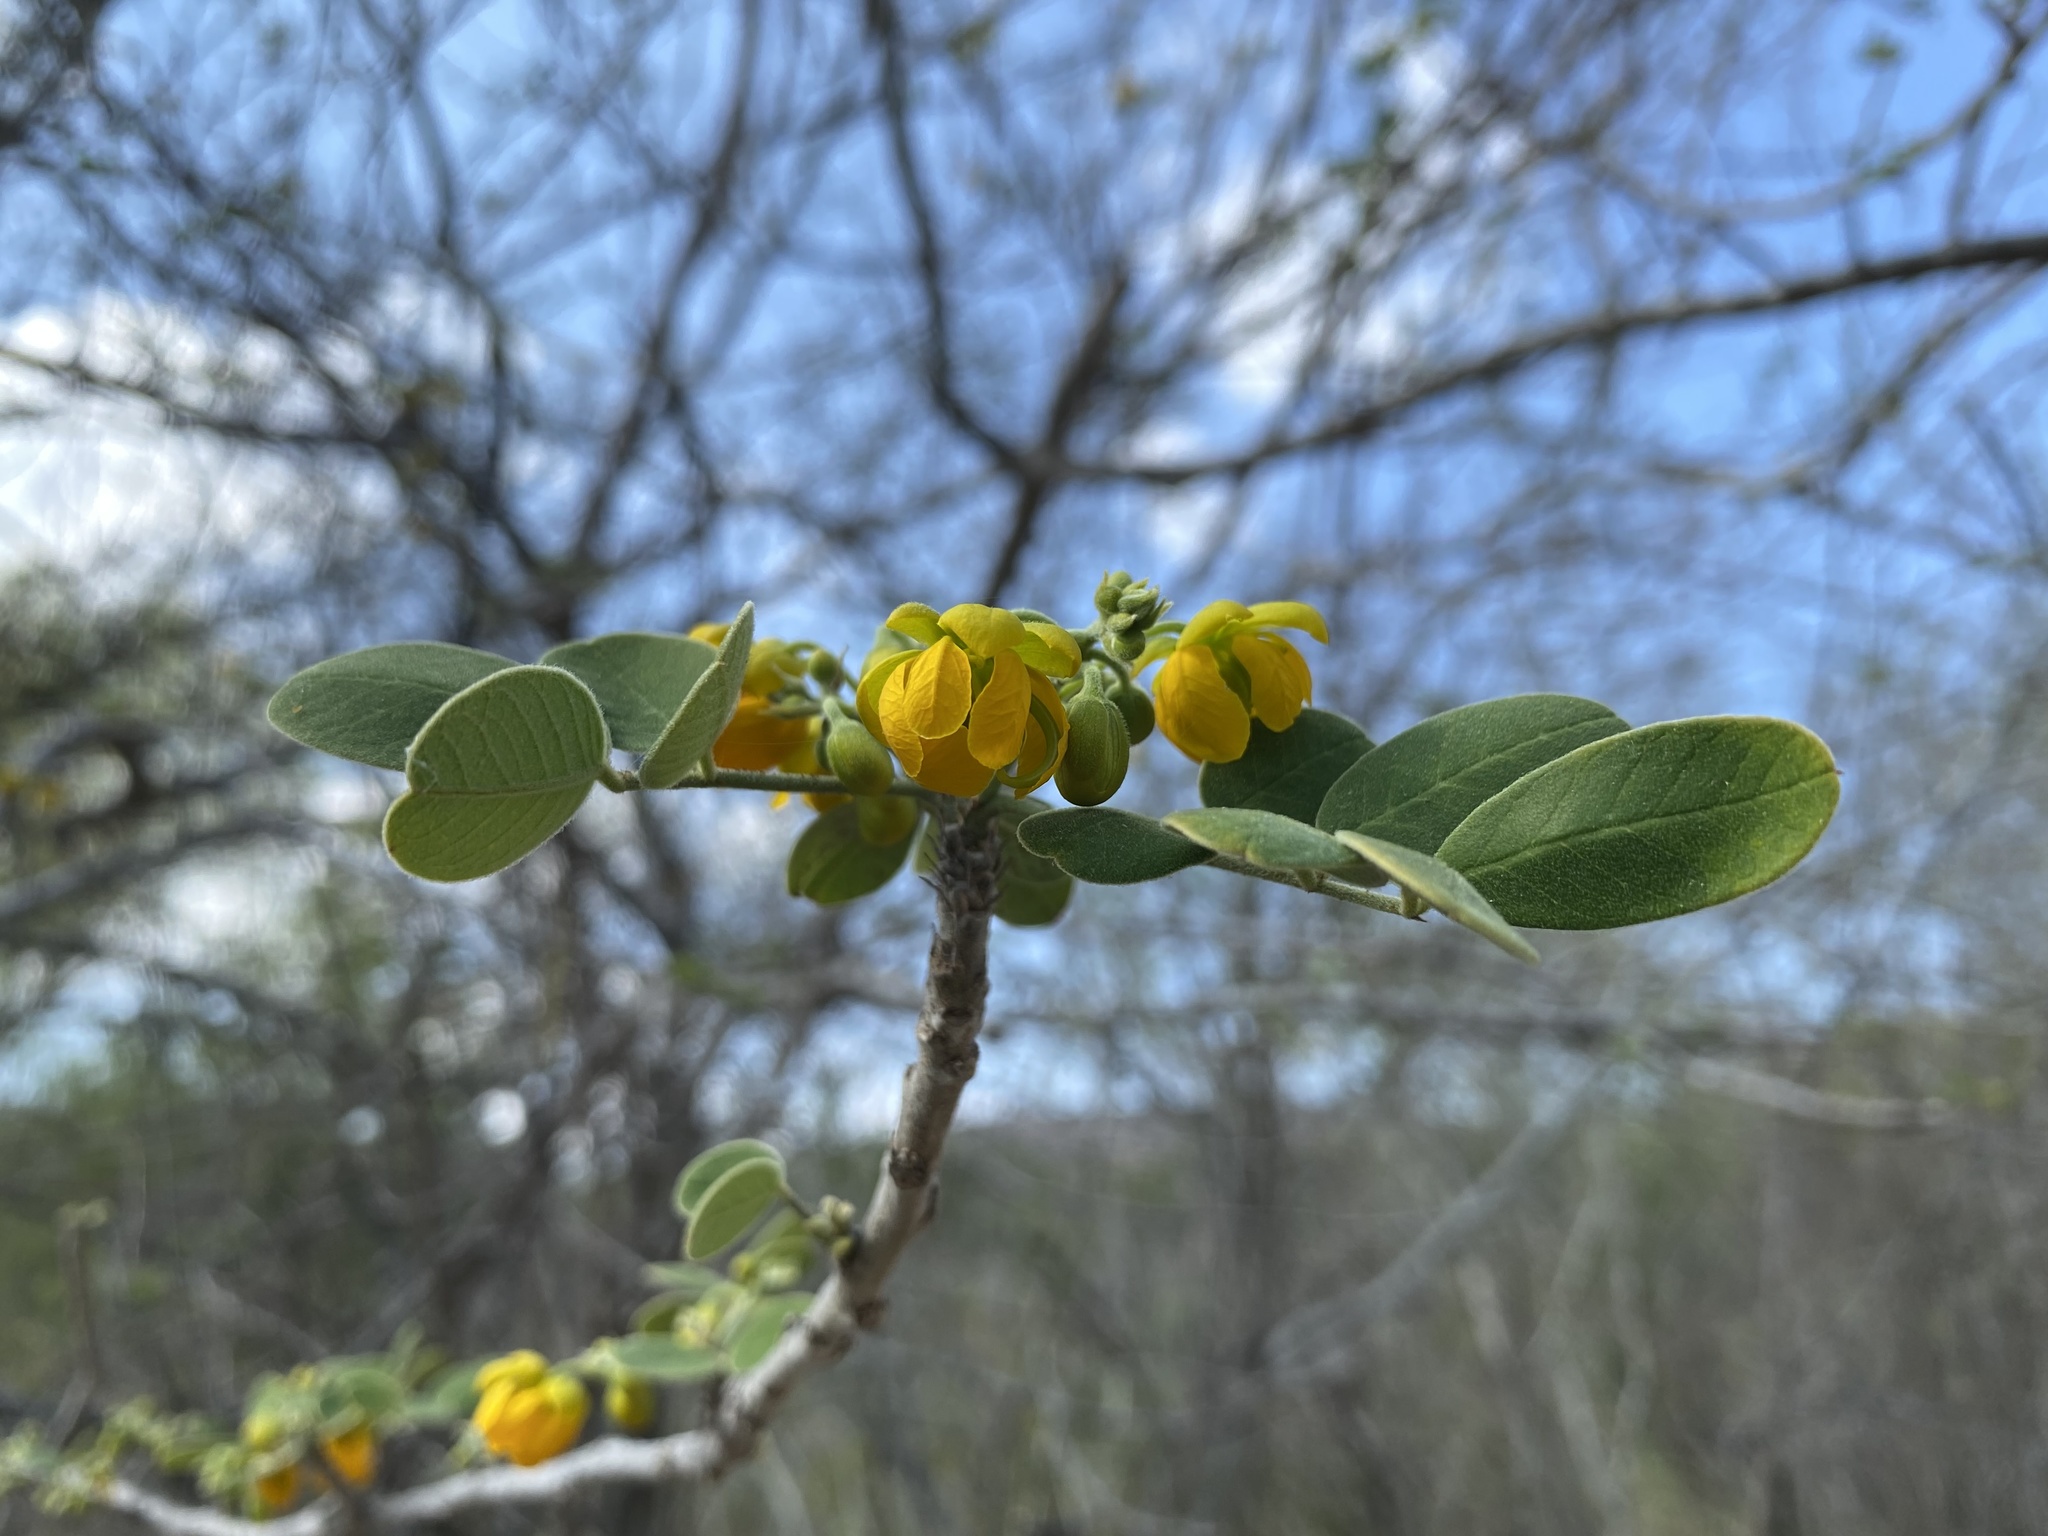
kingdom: Plantae
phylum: Tracheophyta
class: Magnoliopsida
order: Fabales
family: Fabaceae
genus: Senna
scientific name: Senna atomaria
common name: Flor de san jose
